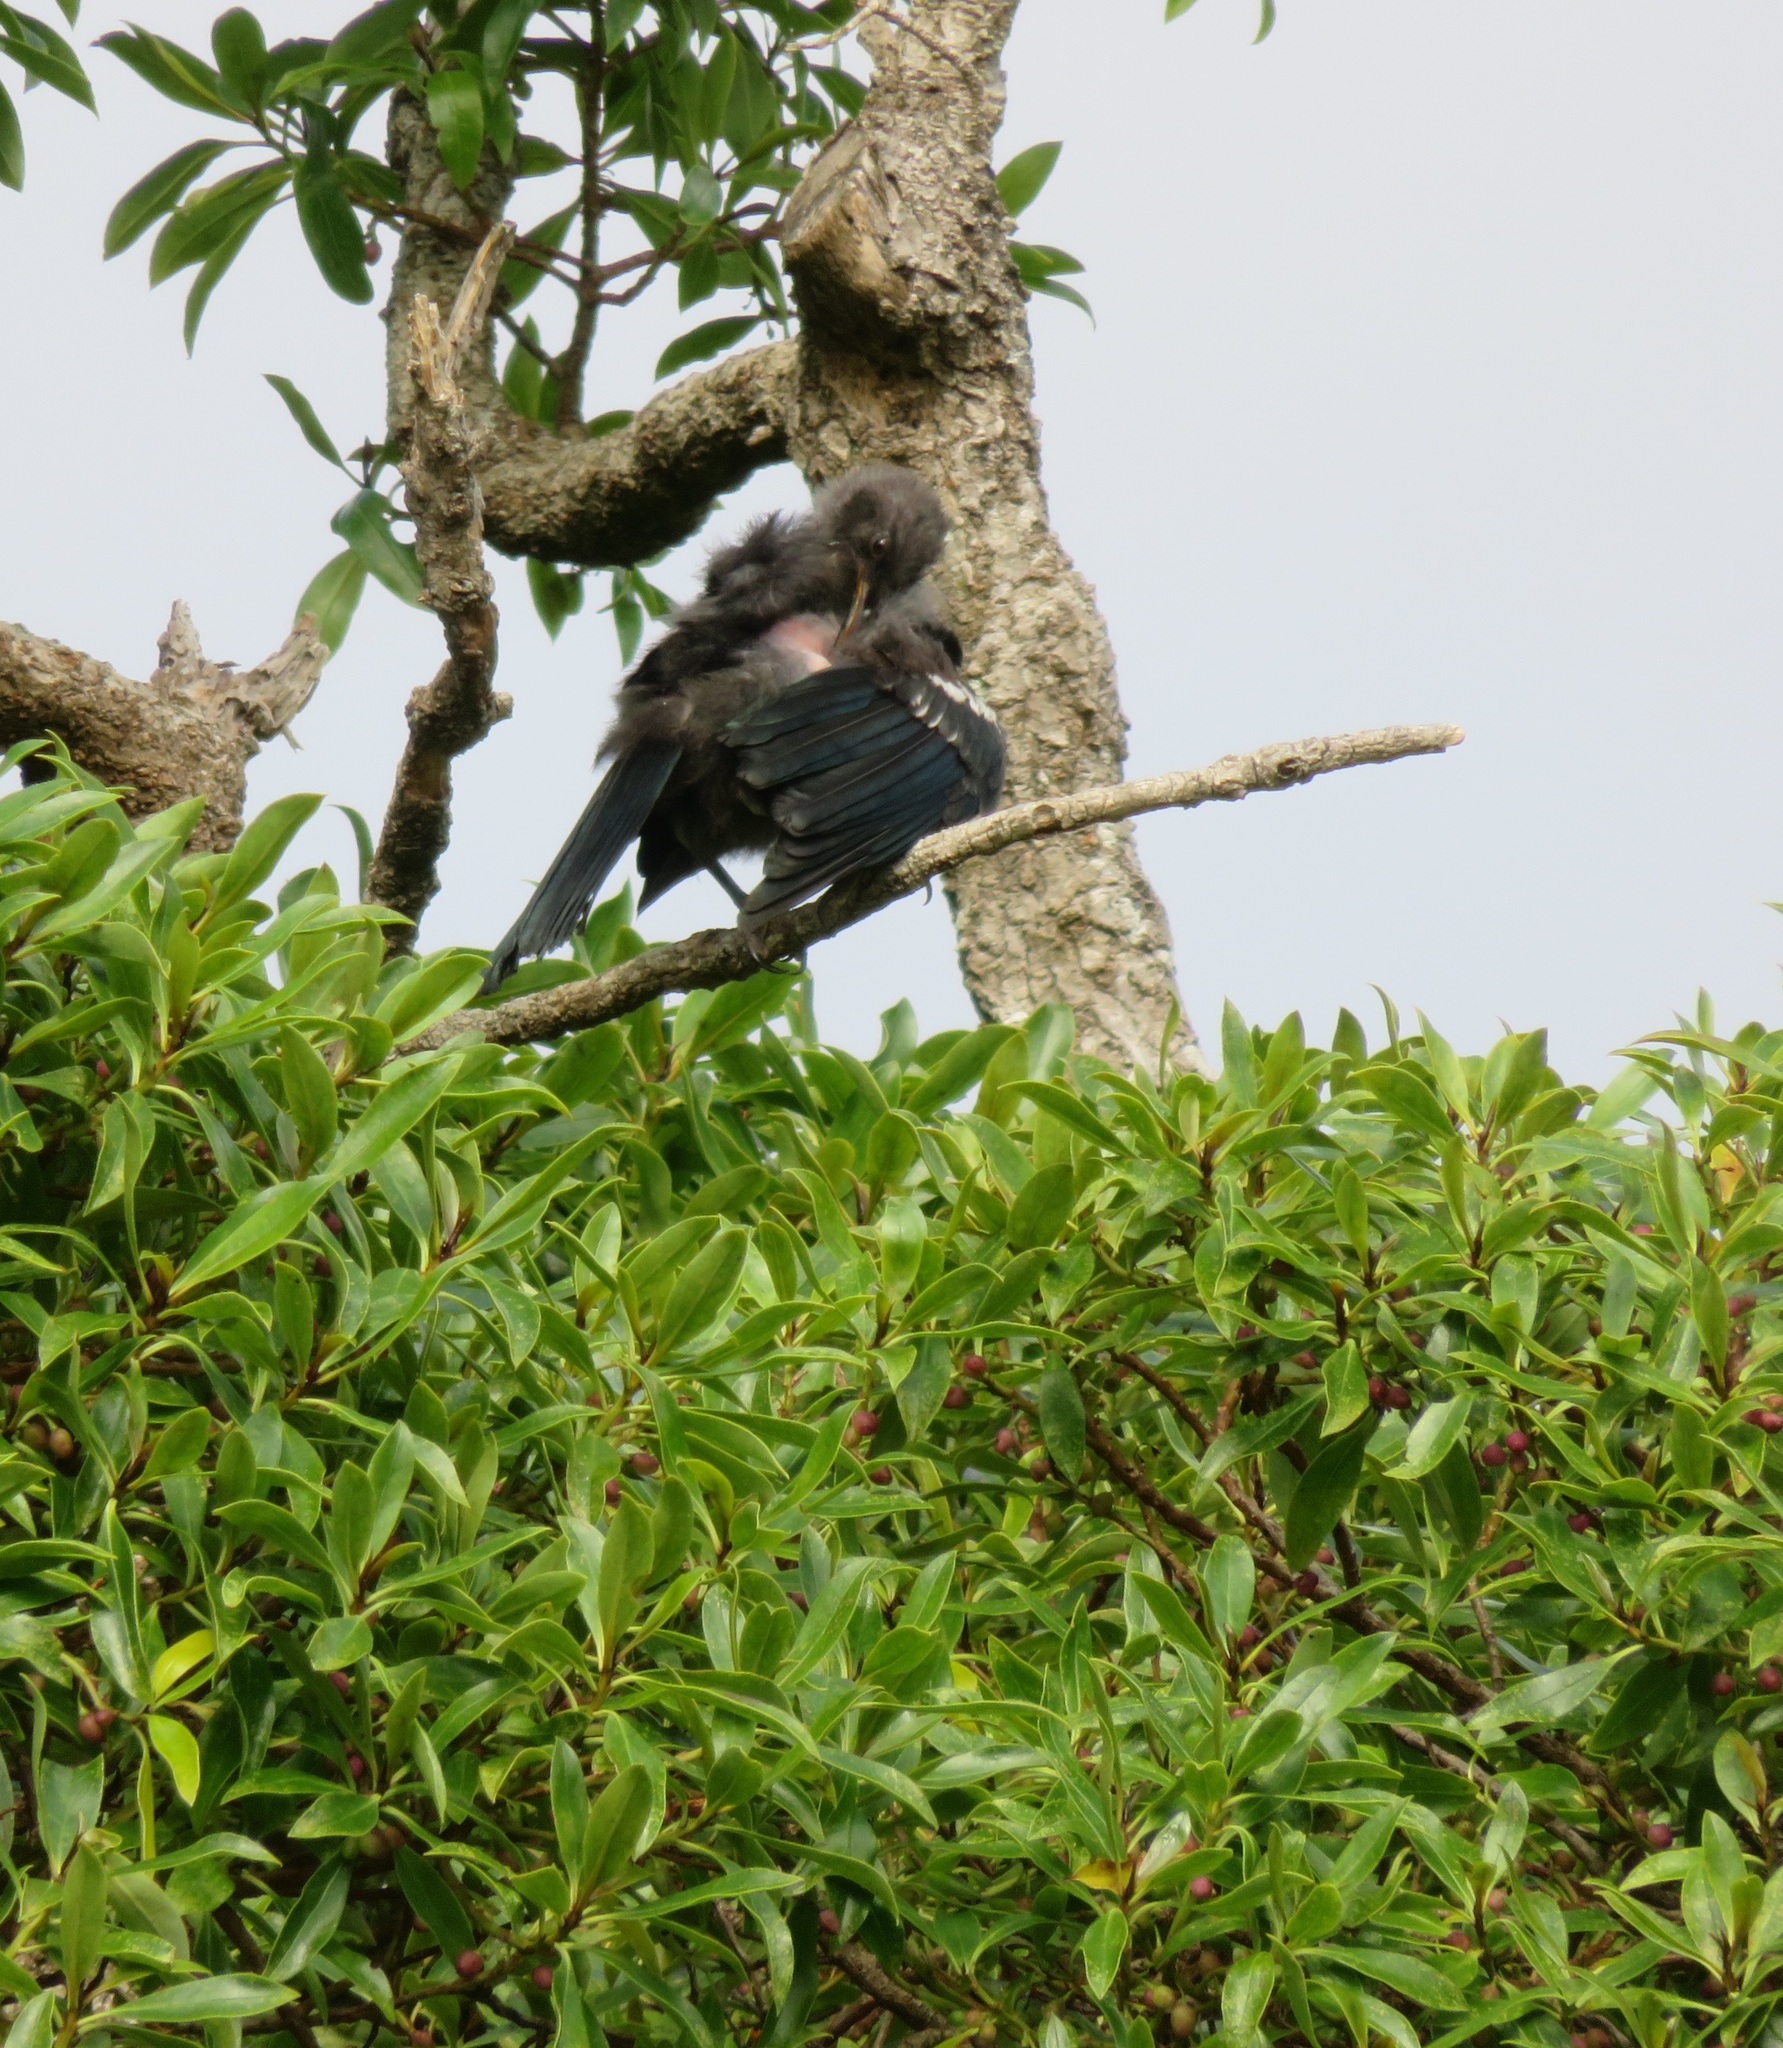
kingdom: Animalia
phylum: Chordata
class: Aves
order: Passeriformes
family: Meliphagidae
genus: Prosthemadera
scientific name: Prosthemadera novaeseelandiae
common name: Tui
